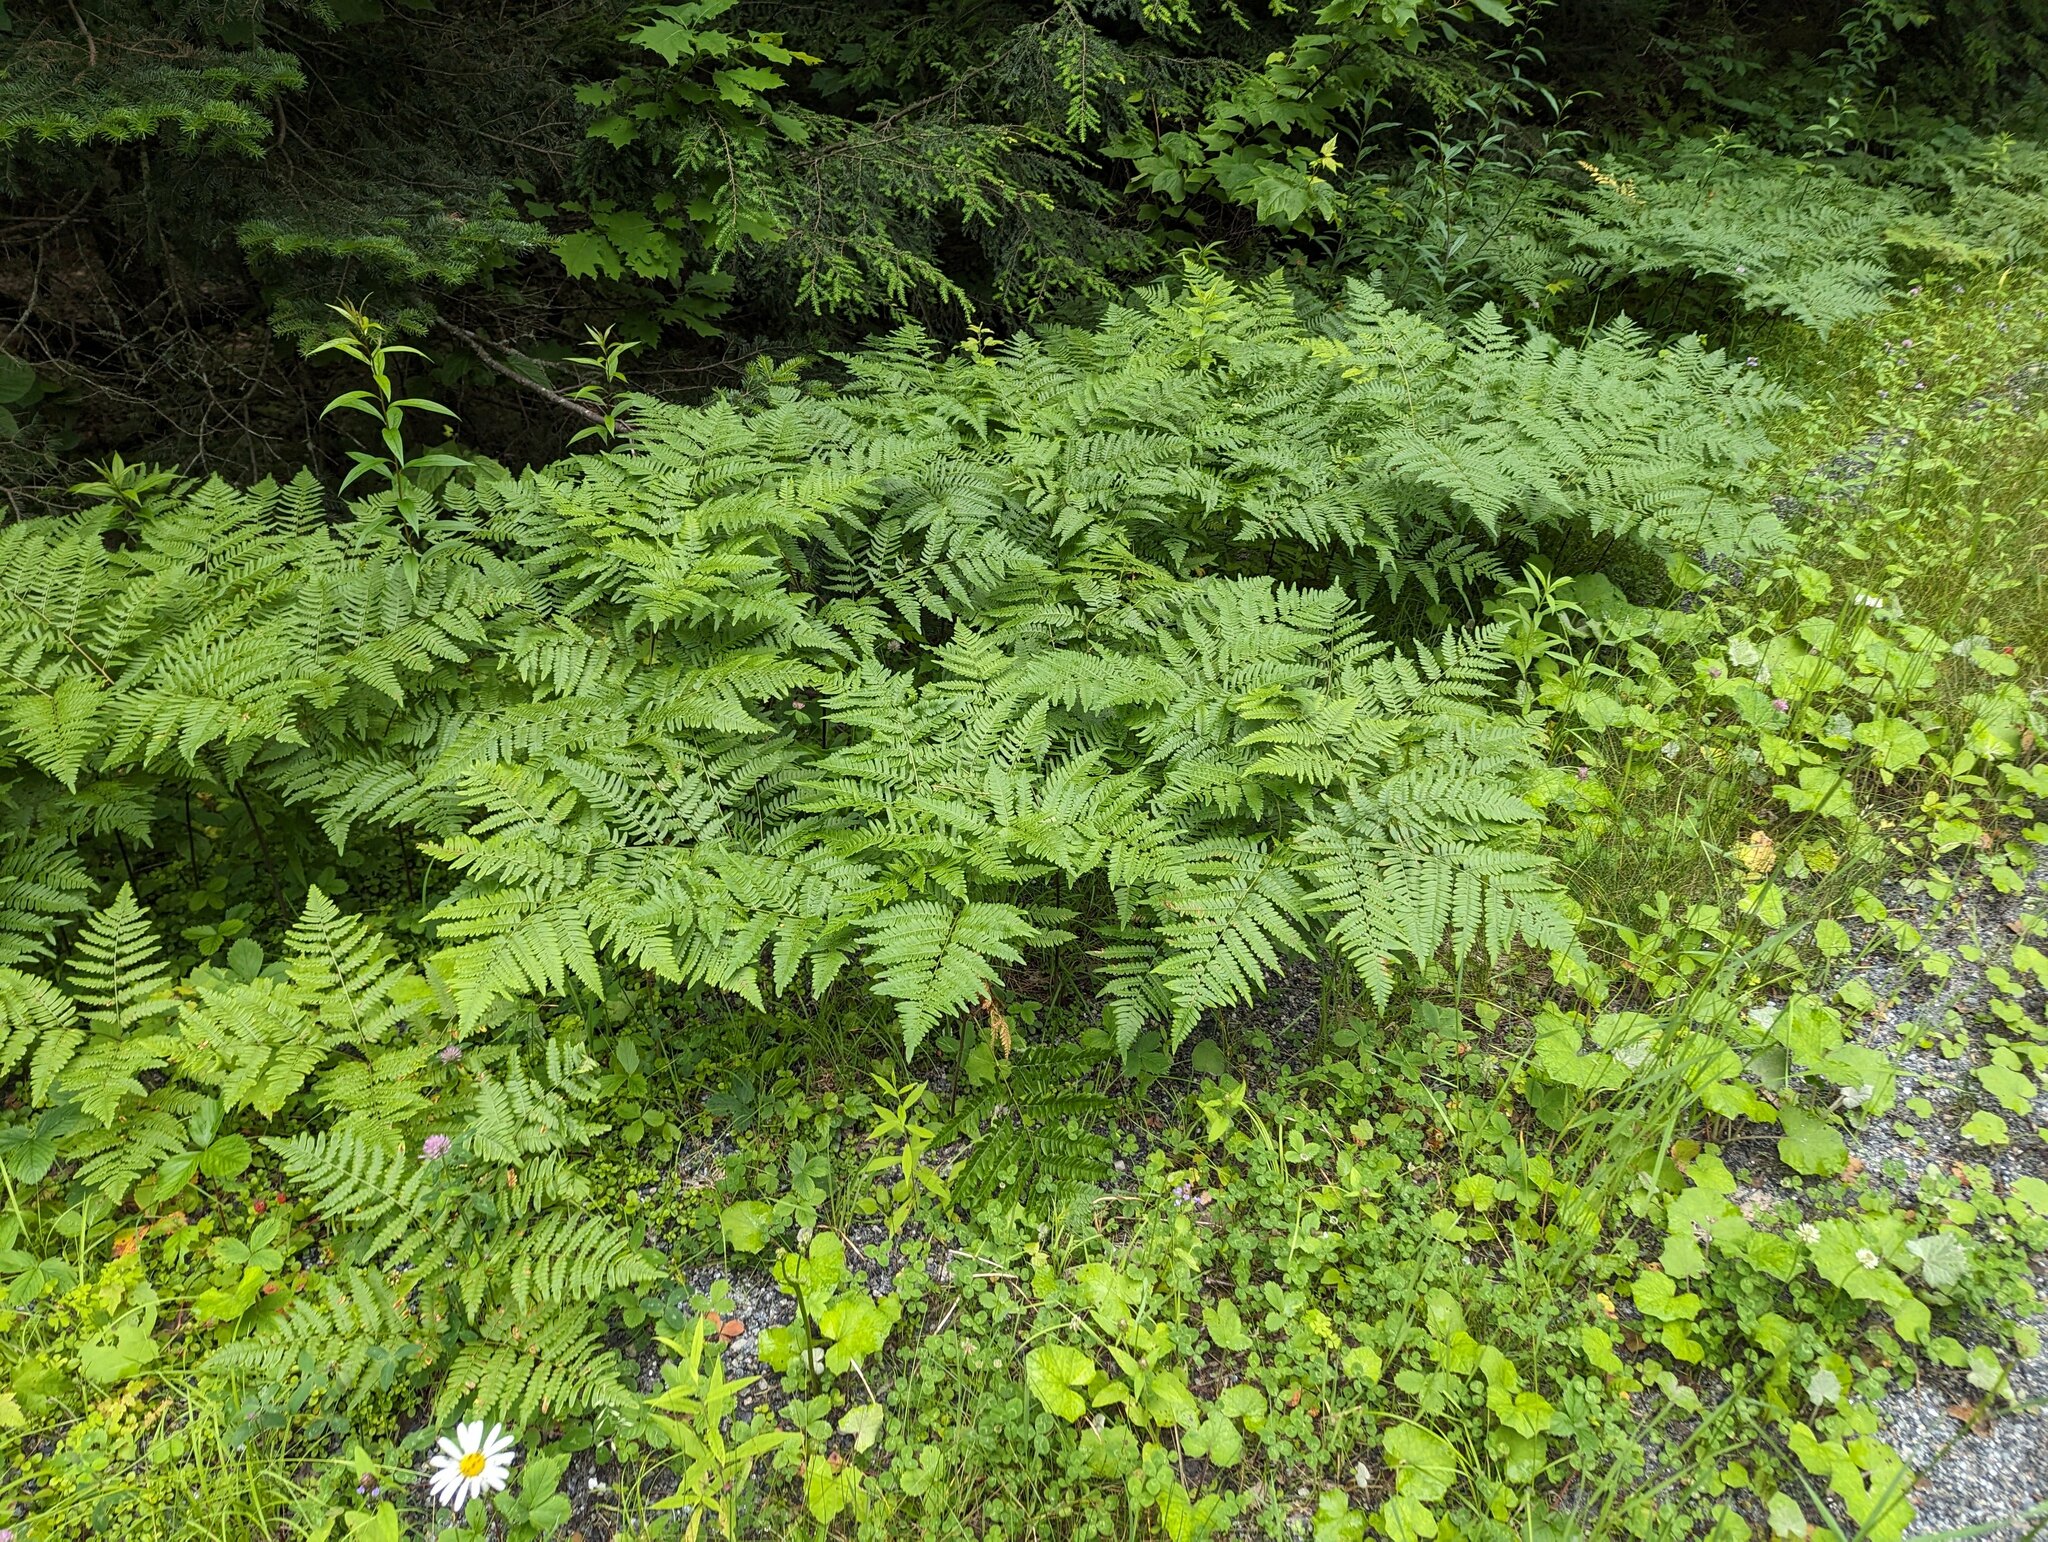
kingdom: Plantae
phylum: Tracheophyta
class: Polypodiopsida
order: Polypodiales
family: Dennstaedtiaceae
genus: Pteridium
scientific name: Pteridium aquilinum
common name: Bracken
